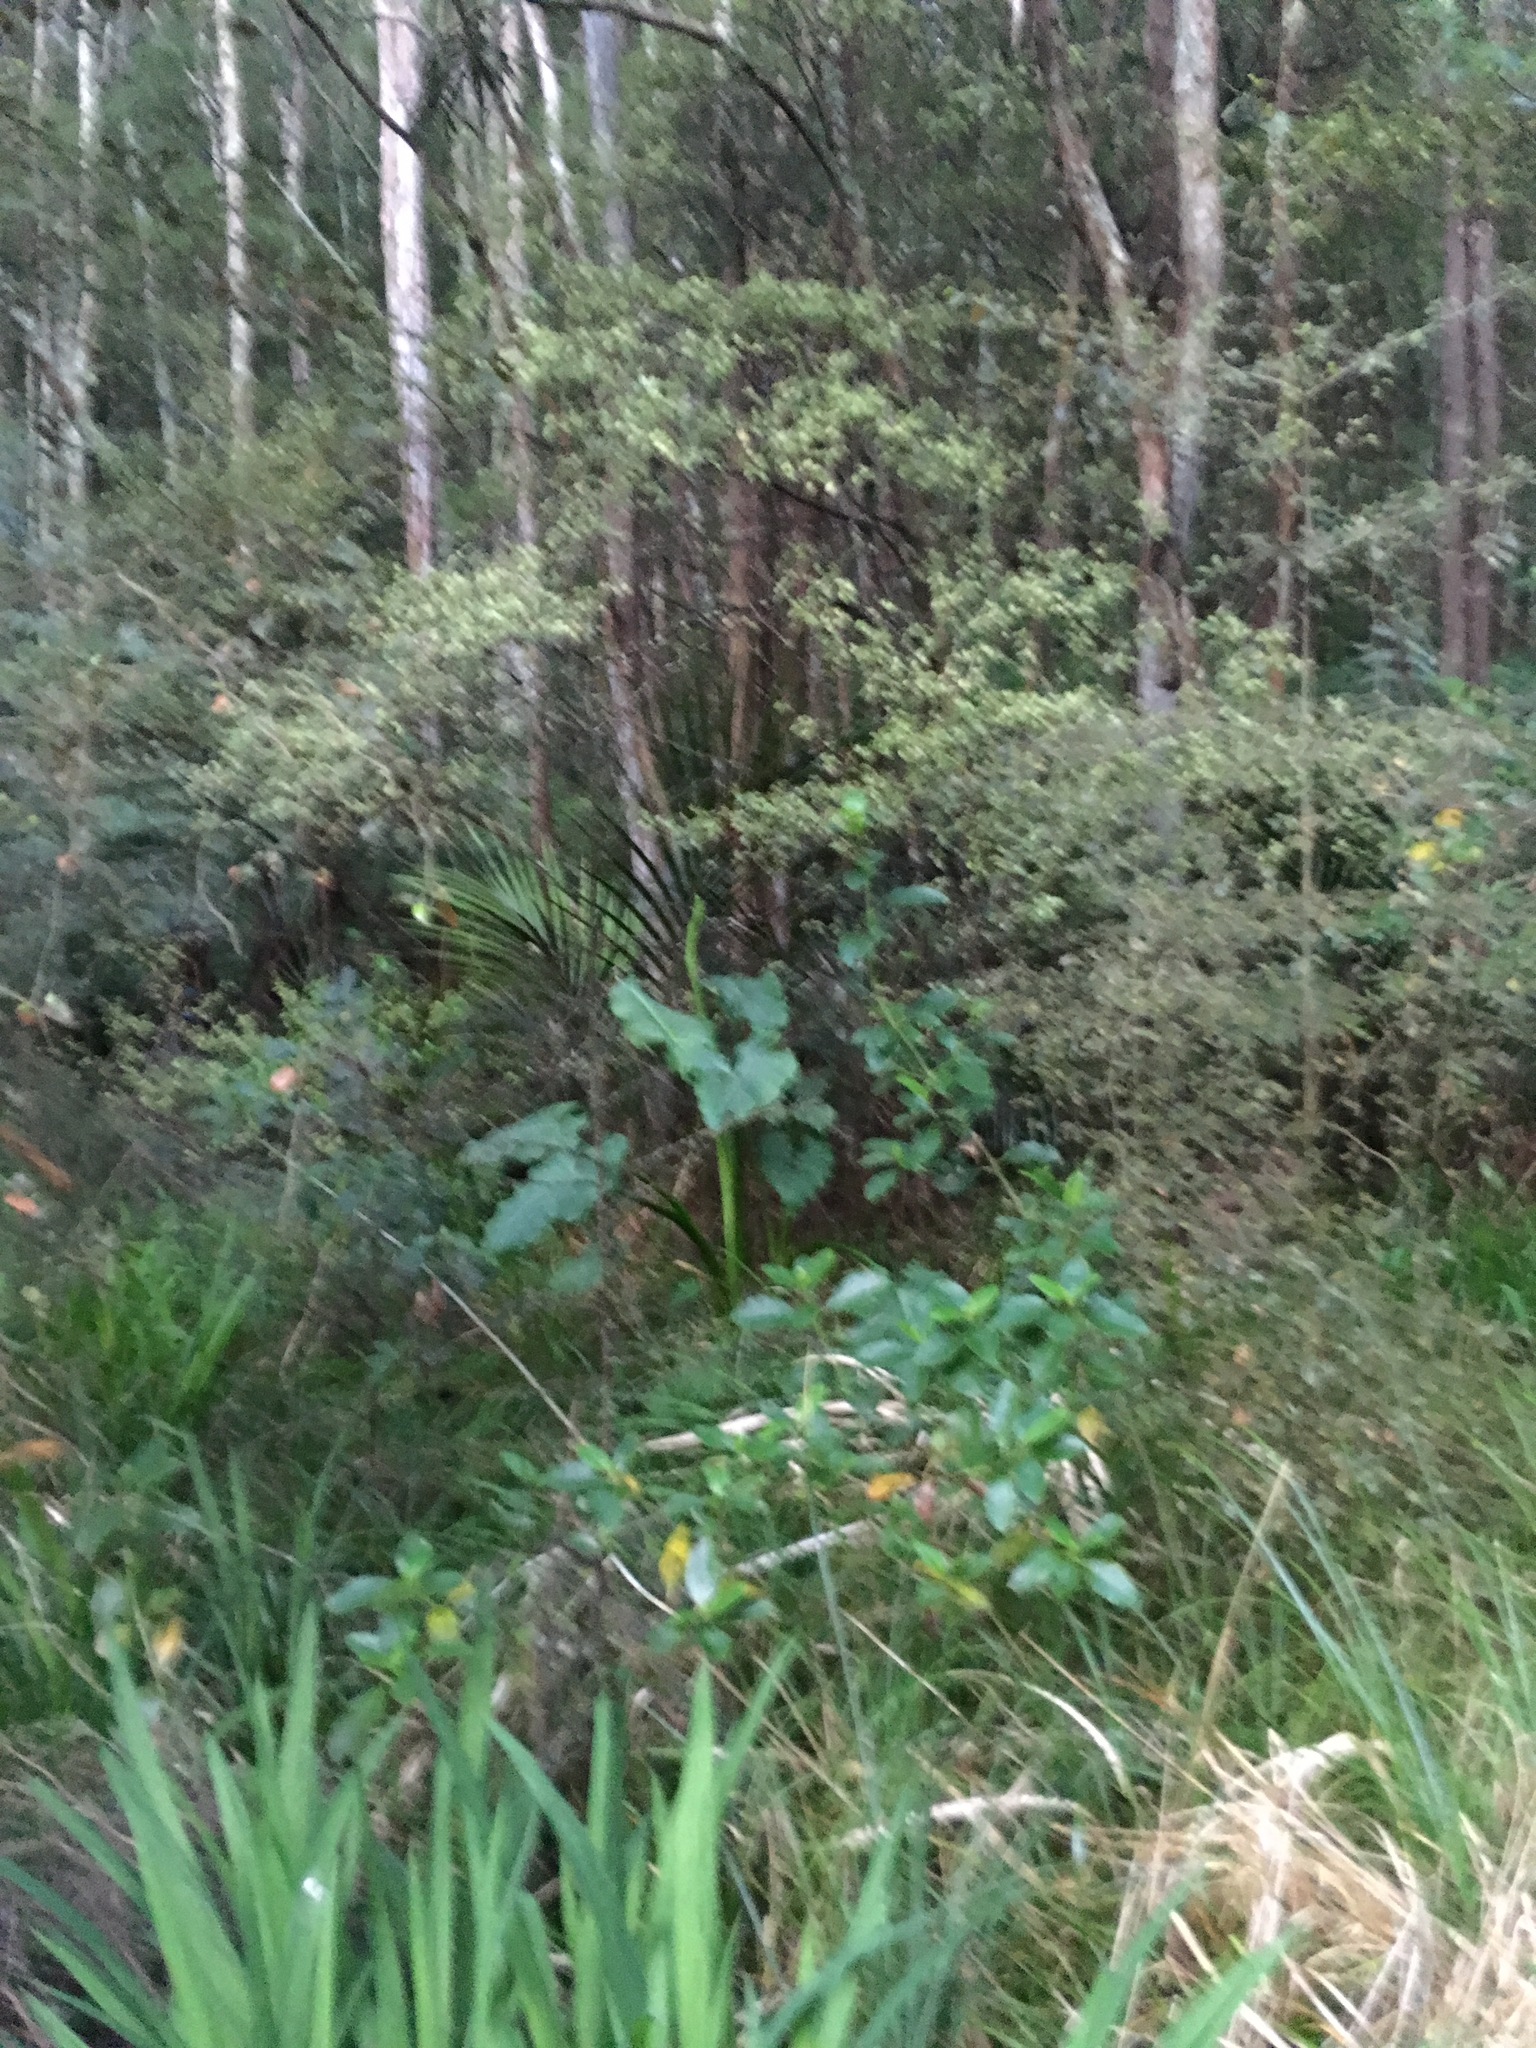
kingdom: Plantae
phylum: Tracheophyta
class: Liliopsida
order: Asparagales
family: Iridaceae
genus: Crocosmia
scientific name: Crocosmia crocosmiiflora
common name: Montbretia
